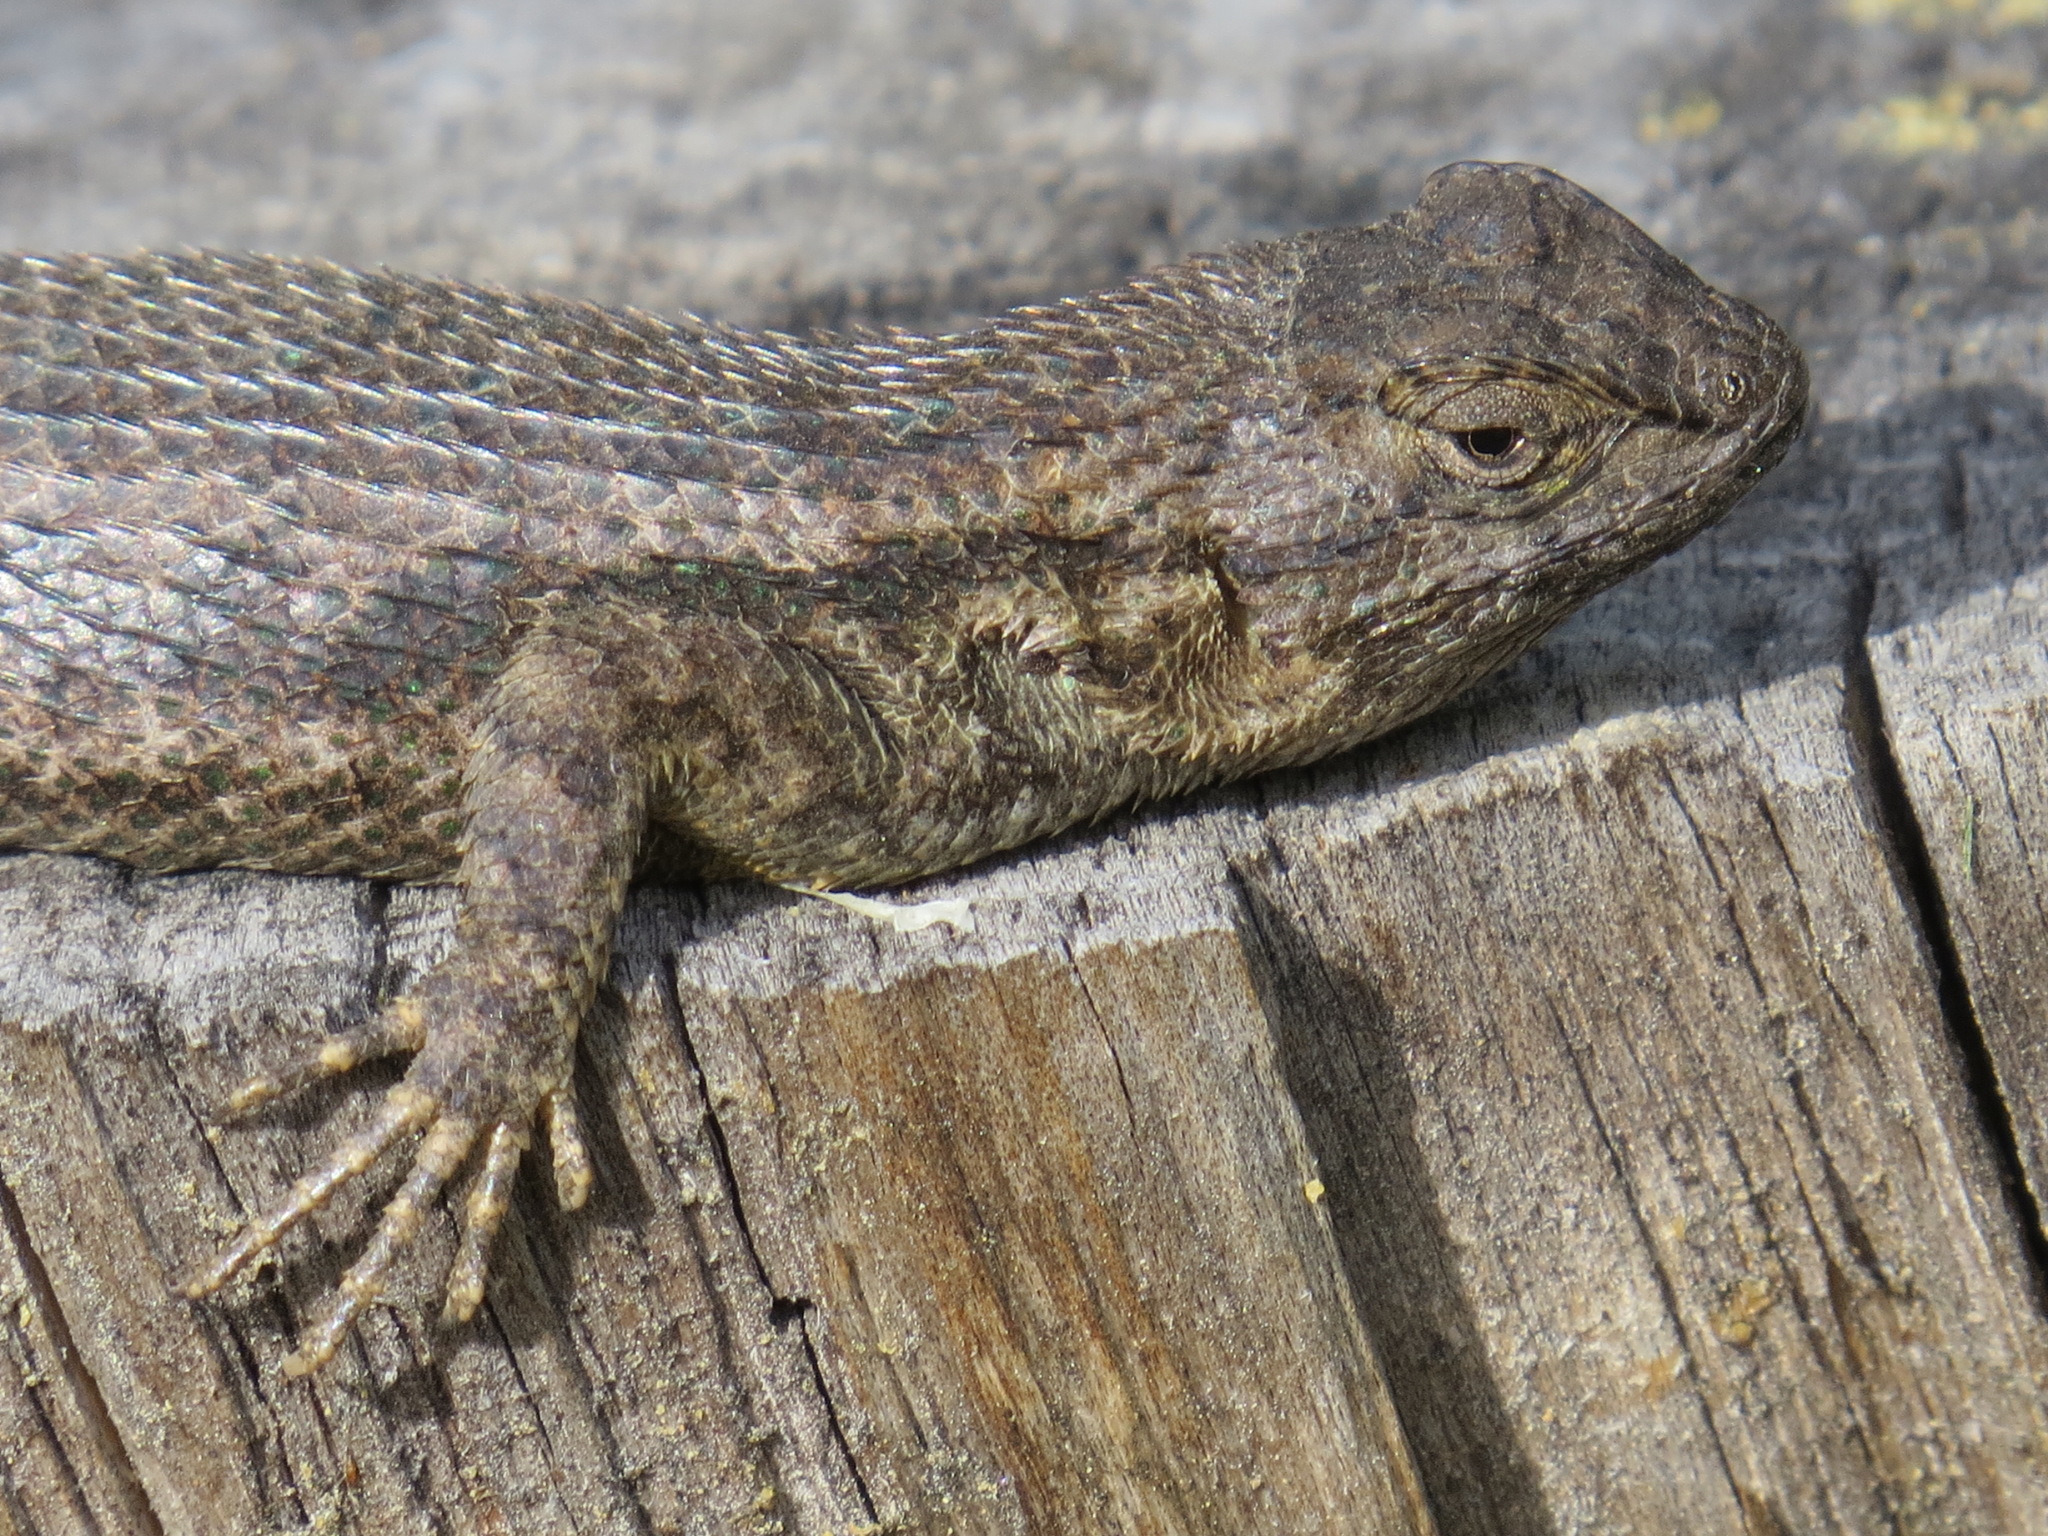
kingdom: Animalia
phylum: Chordata
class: Squamata
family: Phrynosomatidae
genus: Sceloporus
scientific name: Sceloporus occidentalis
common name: Western fence lizard
